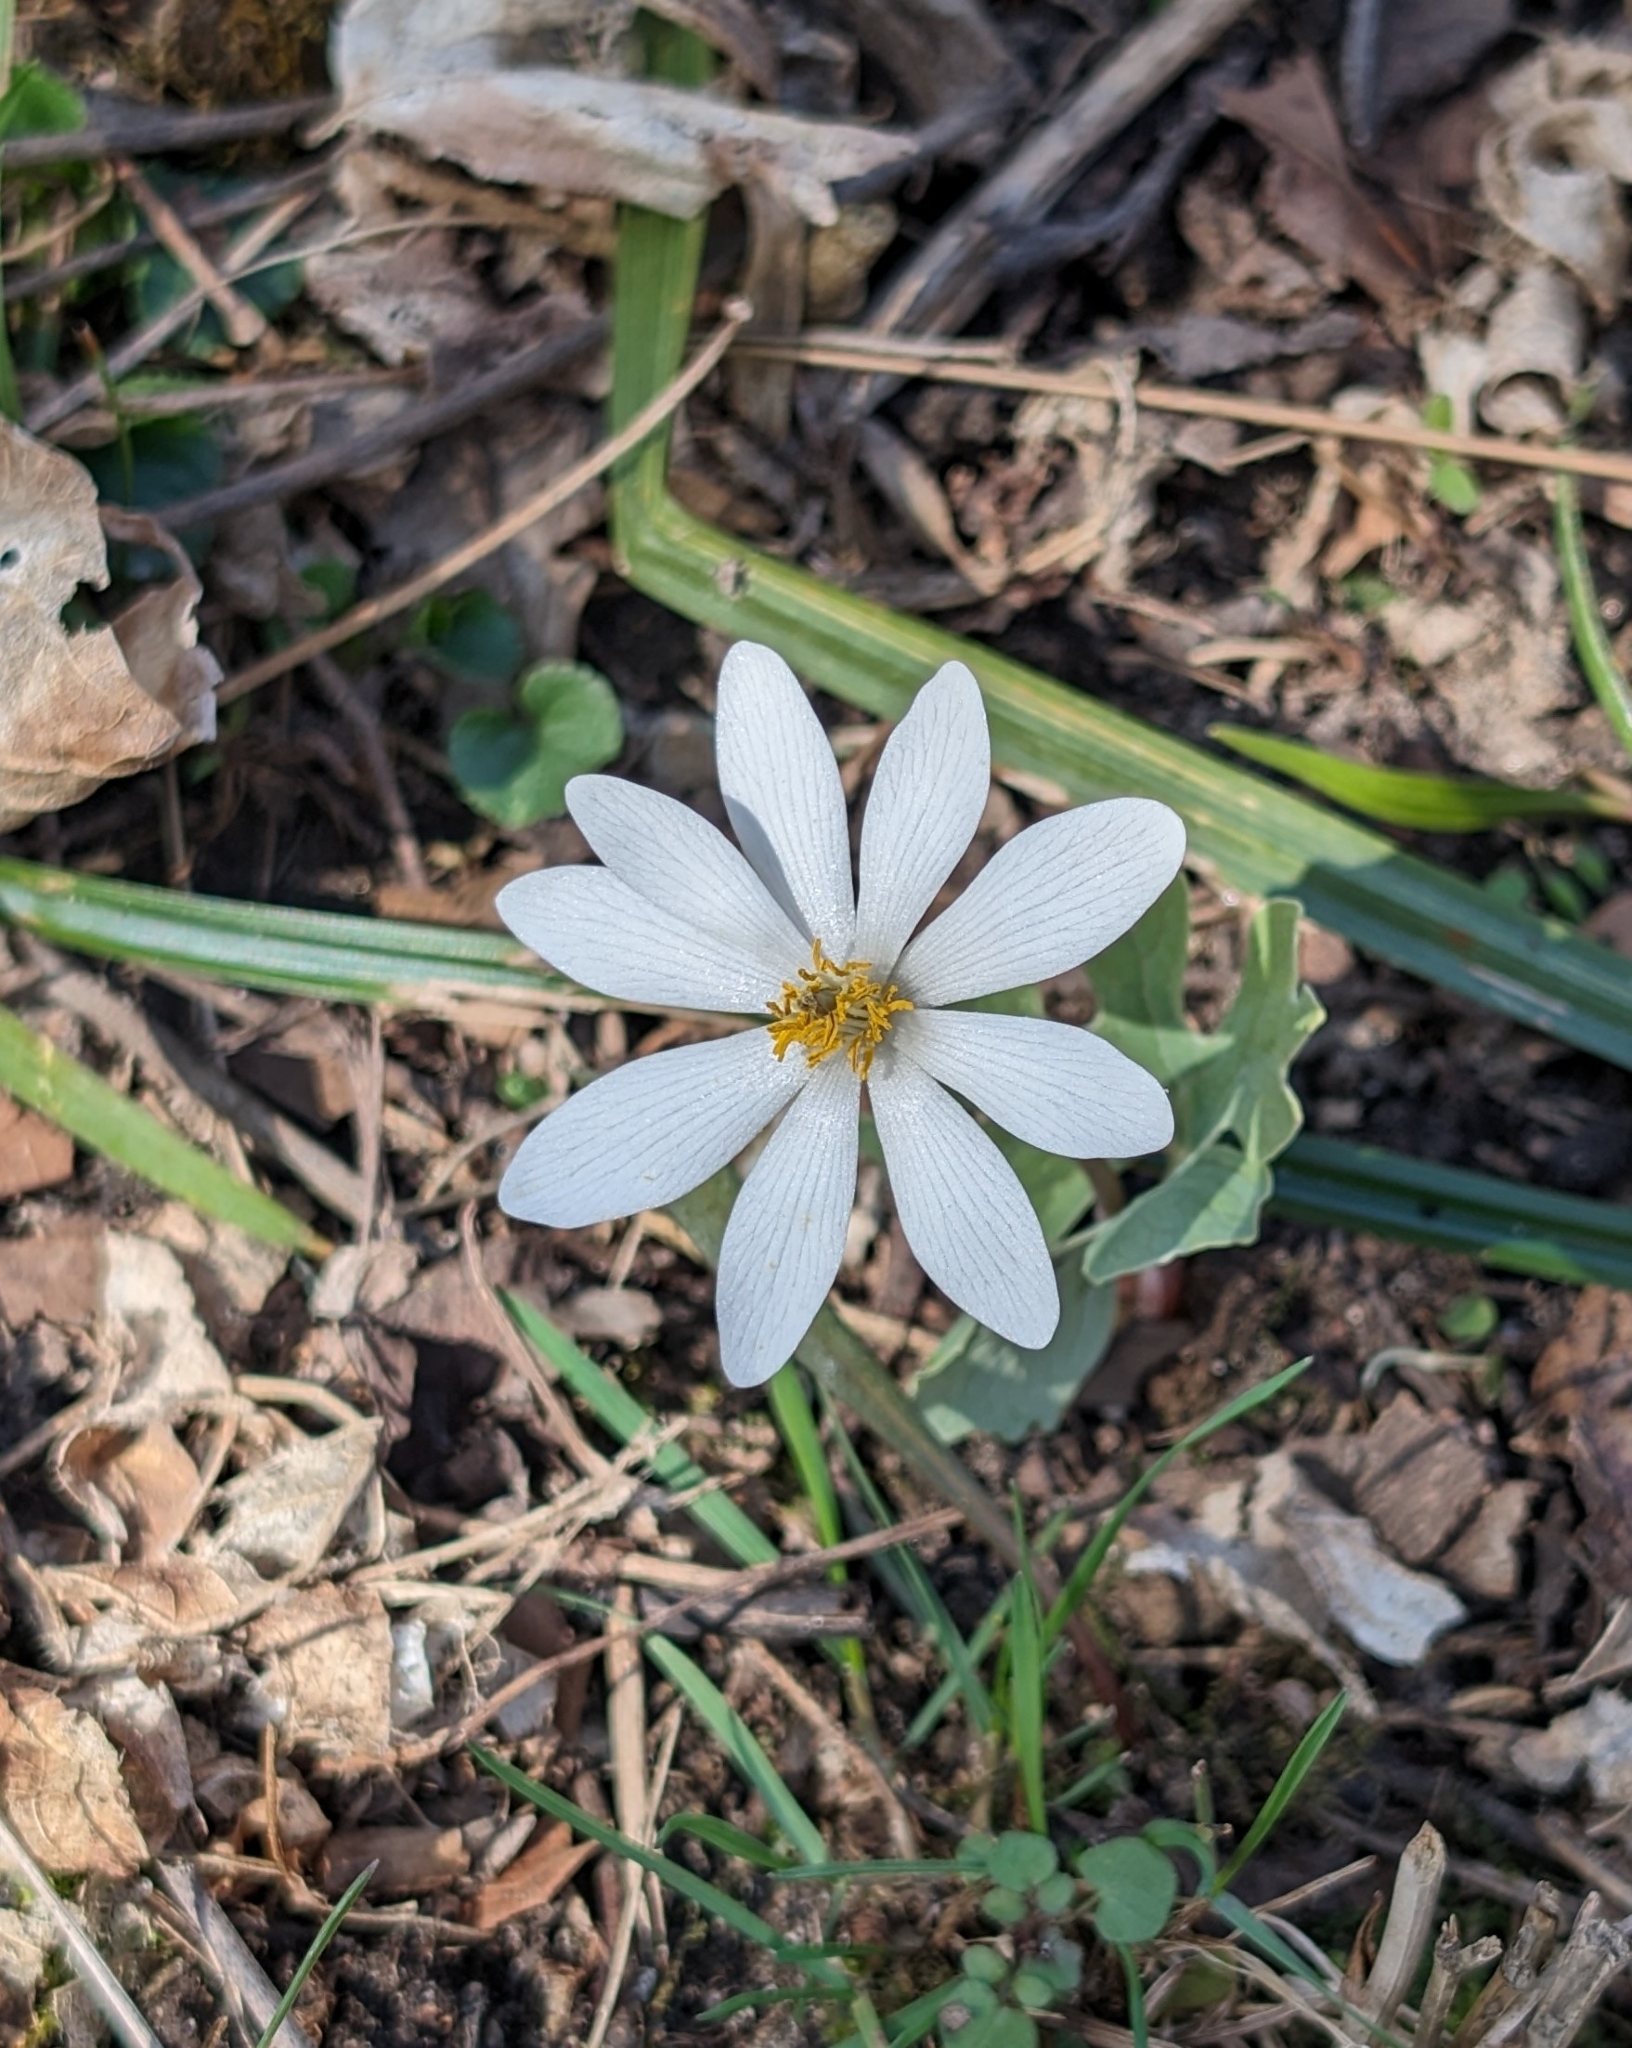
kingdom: Plantae
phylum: Tracheophyta
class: Magnoliopsida
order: Ranunculales
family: Papaveraceae
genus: Sanguinaria
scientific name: Sanguinaria canadensis
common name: Bloodroot
